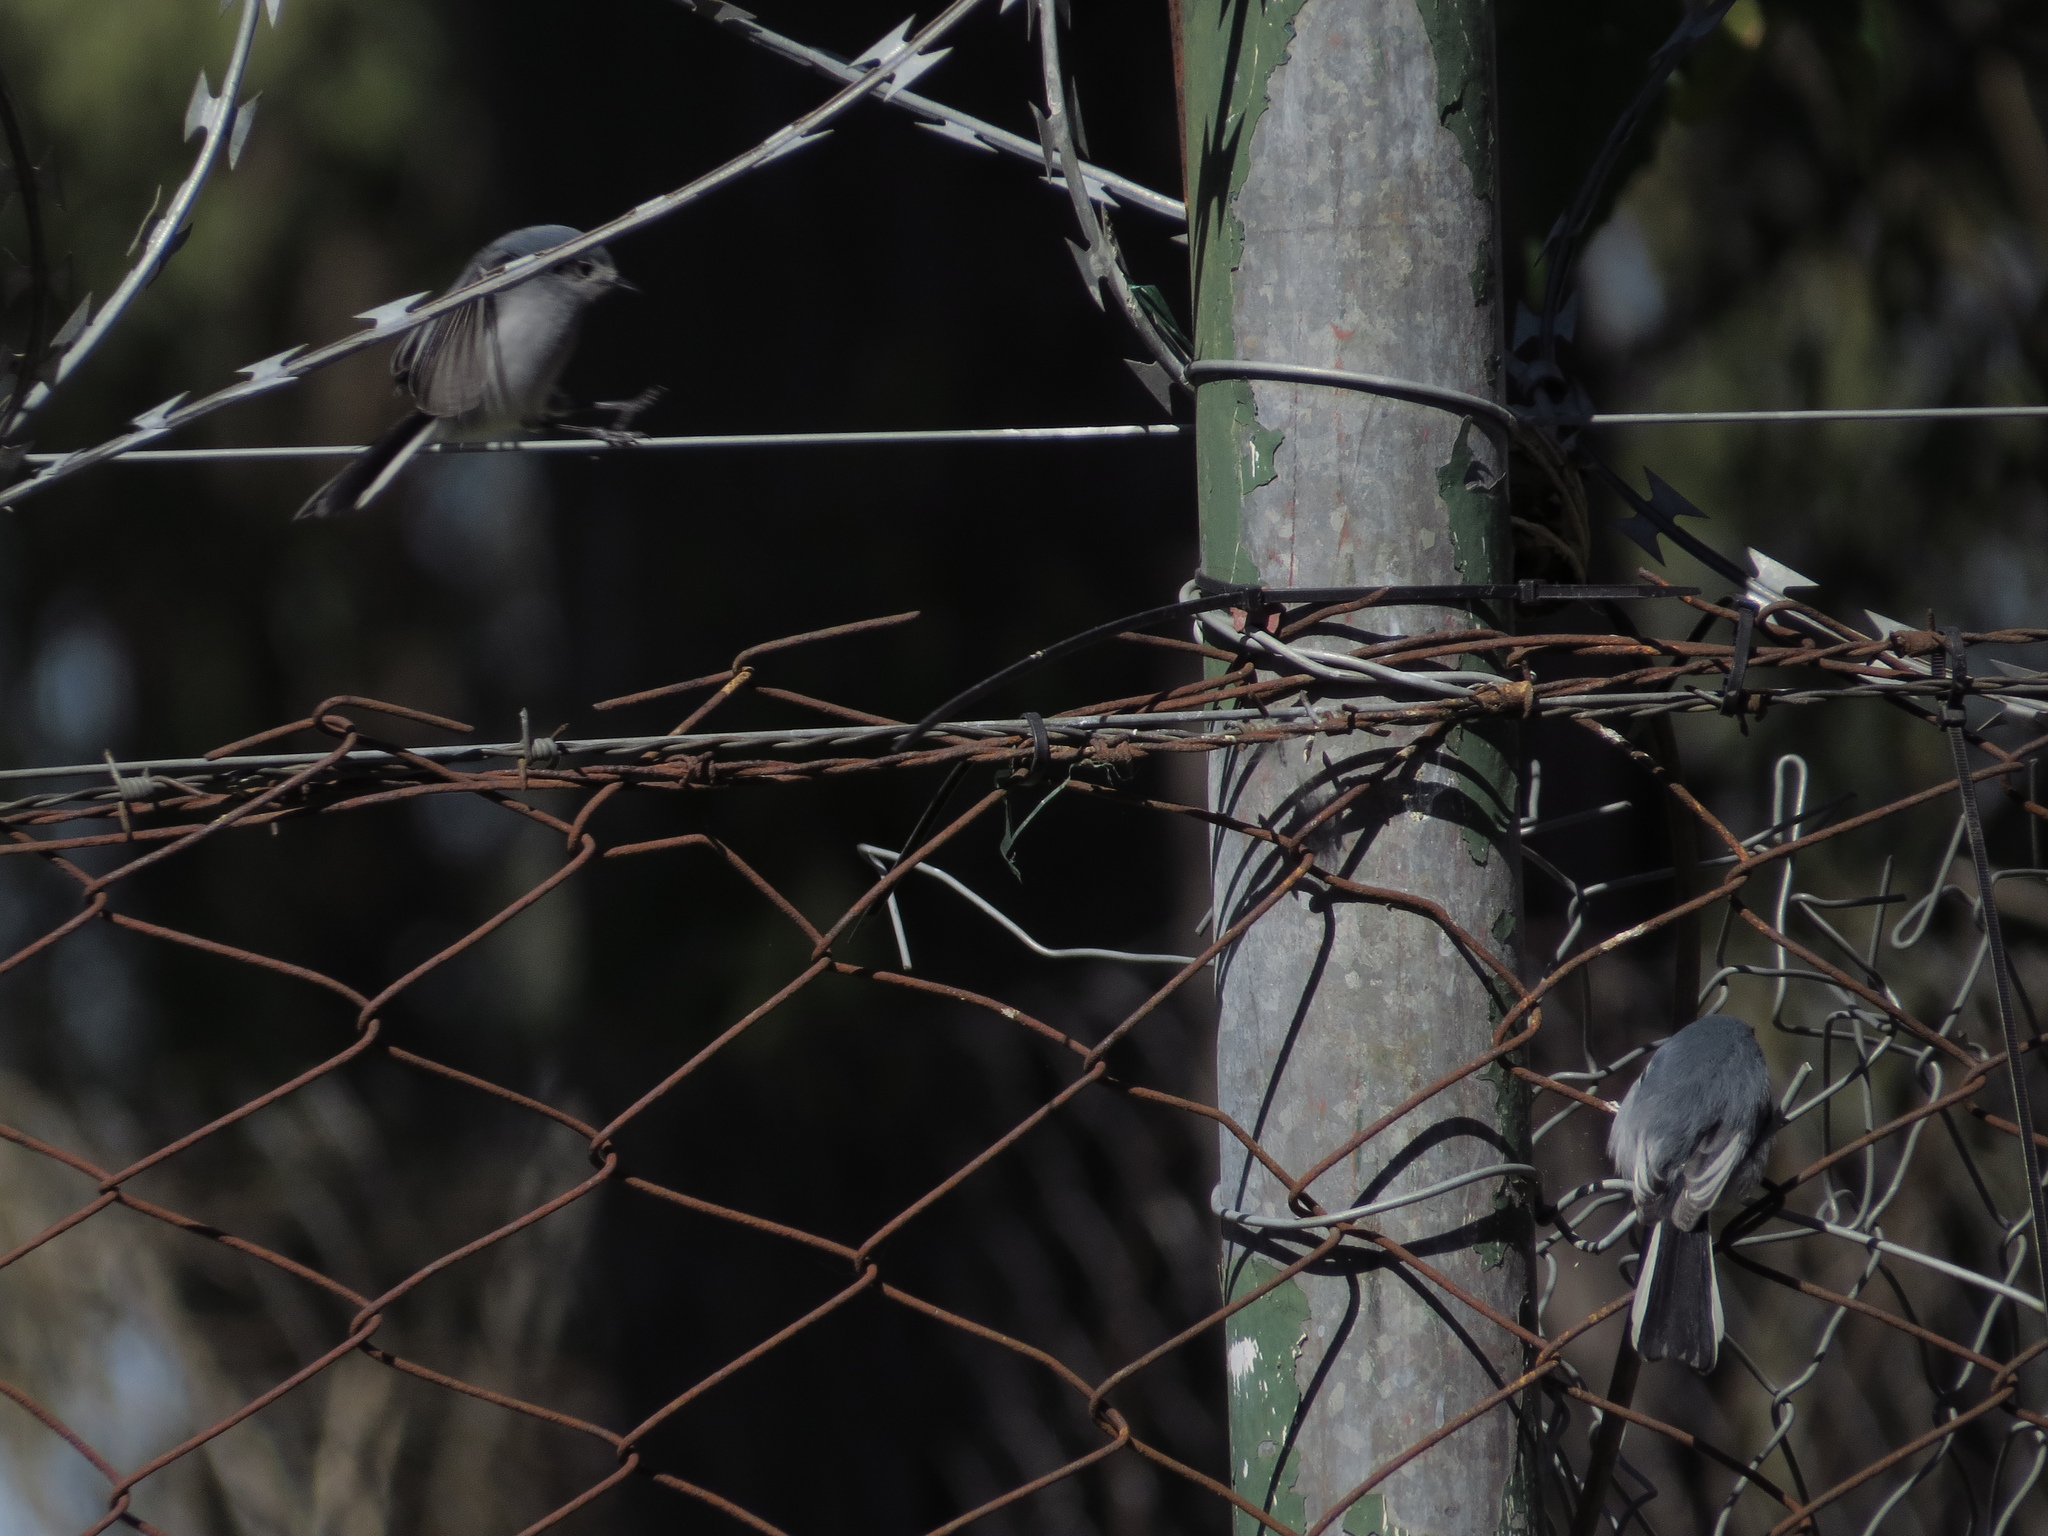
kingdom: Animalia
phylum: Chordata
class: Aves
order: Passeriformes
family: Polioptilidae
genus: Polioptila
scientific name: Polioptila dumicola
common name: Masked gnatcatcher
